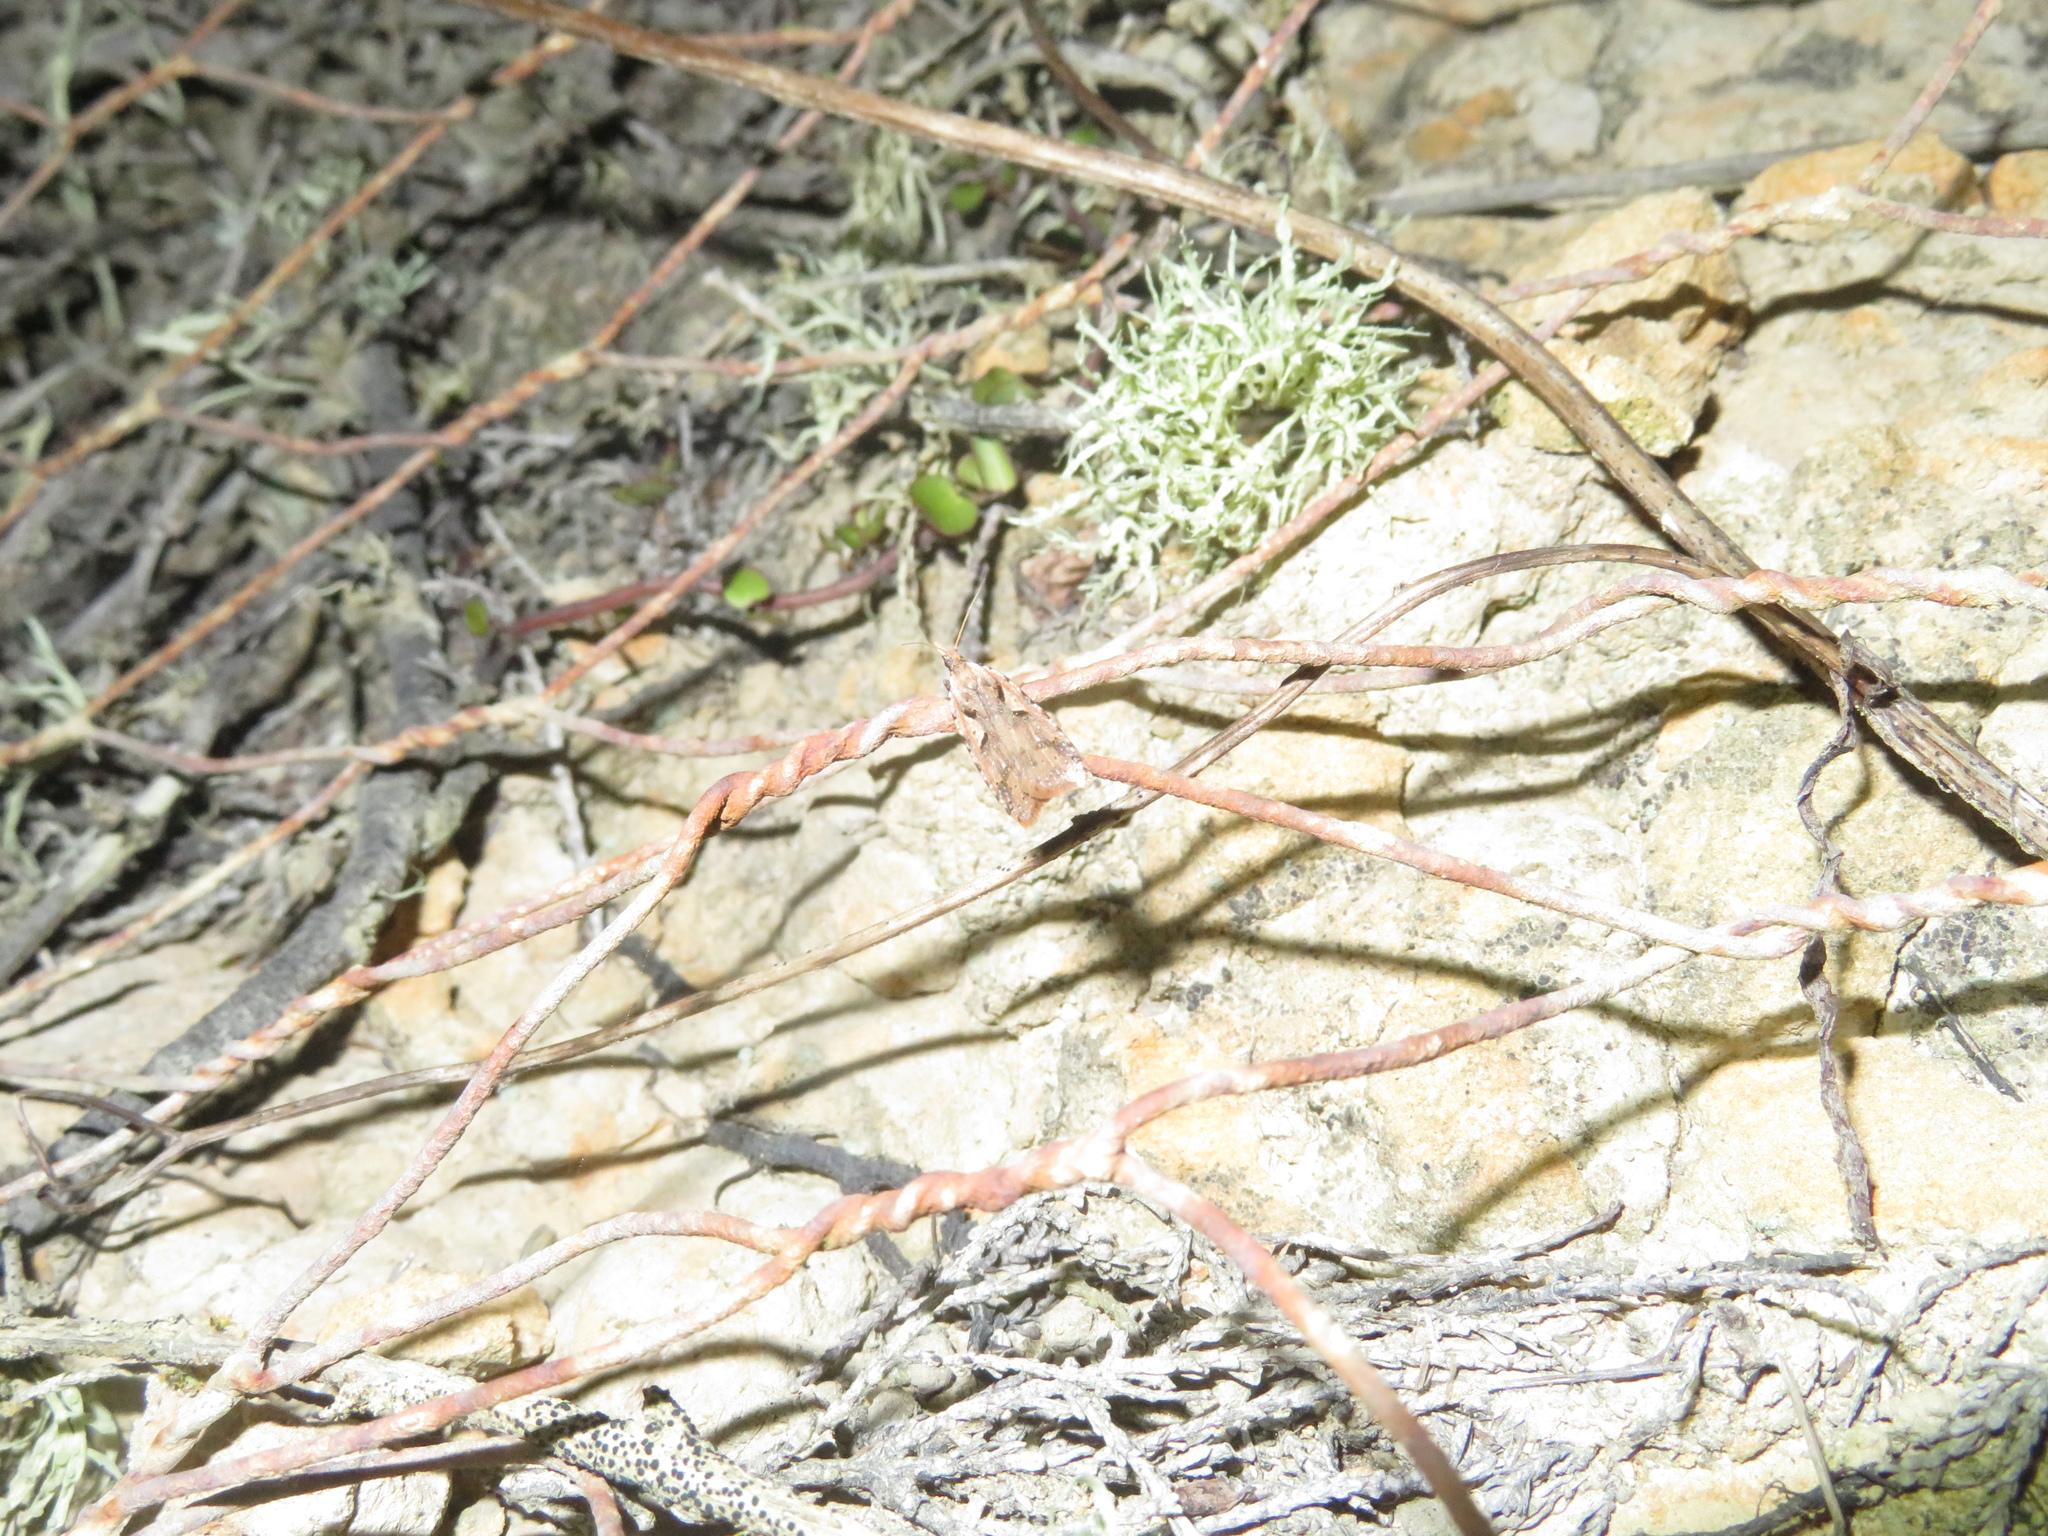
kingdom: Animalia
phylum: Arthropoda
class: Insecta
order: Lepidoptera
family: Tortricidae
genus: Cnephasia
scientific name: Cnephasia jactatana
